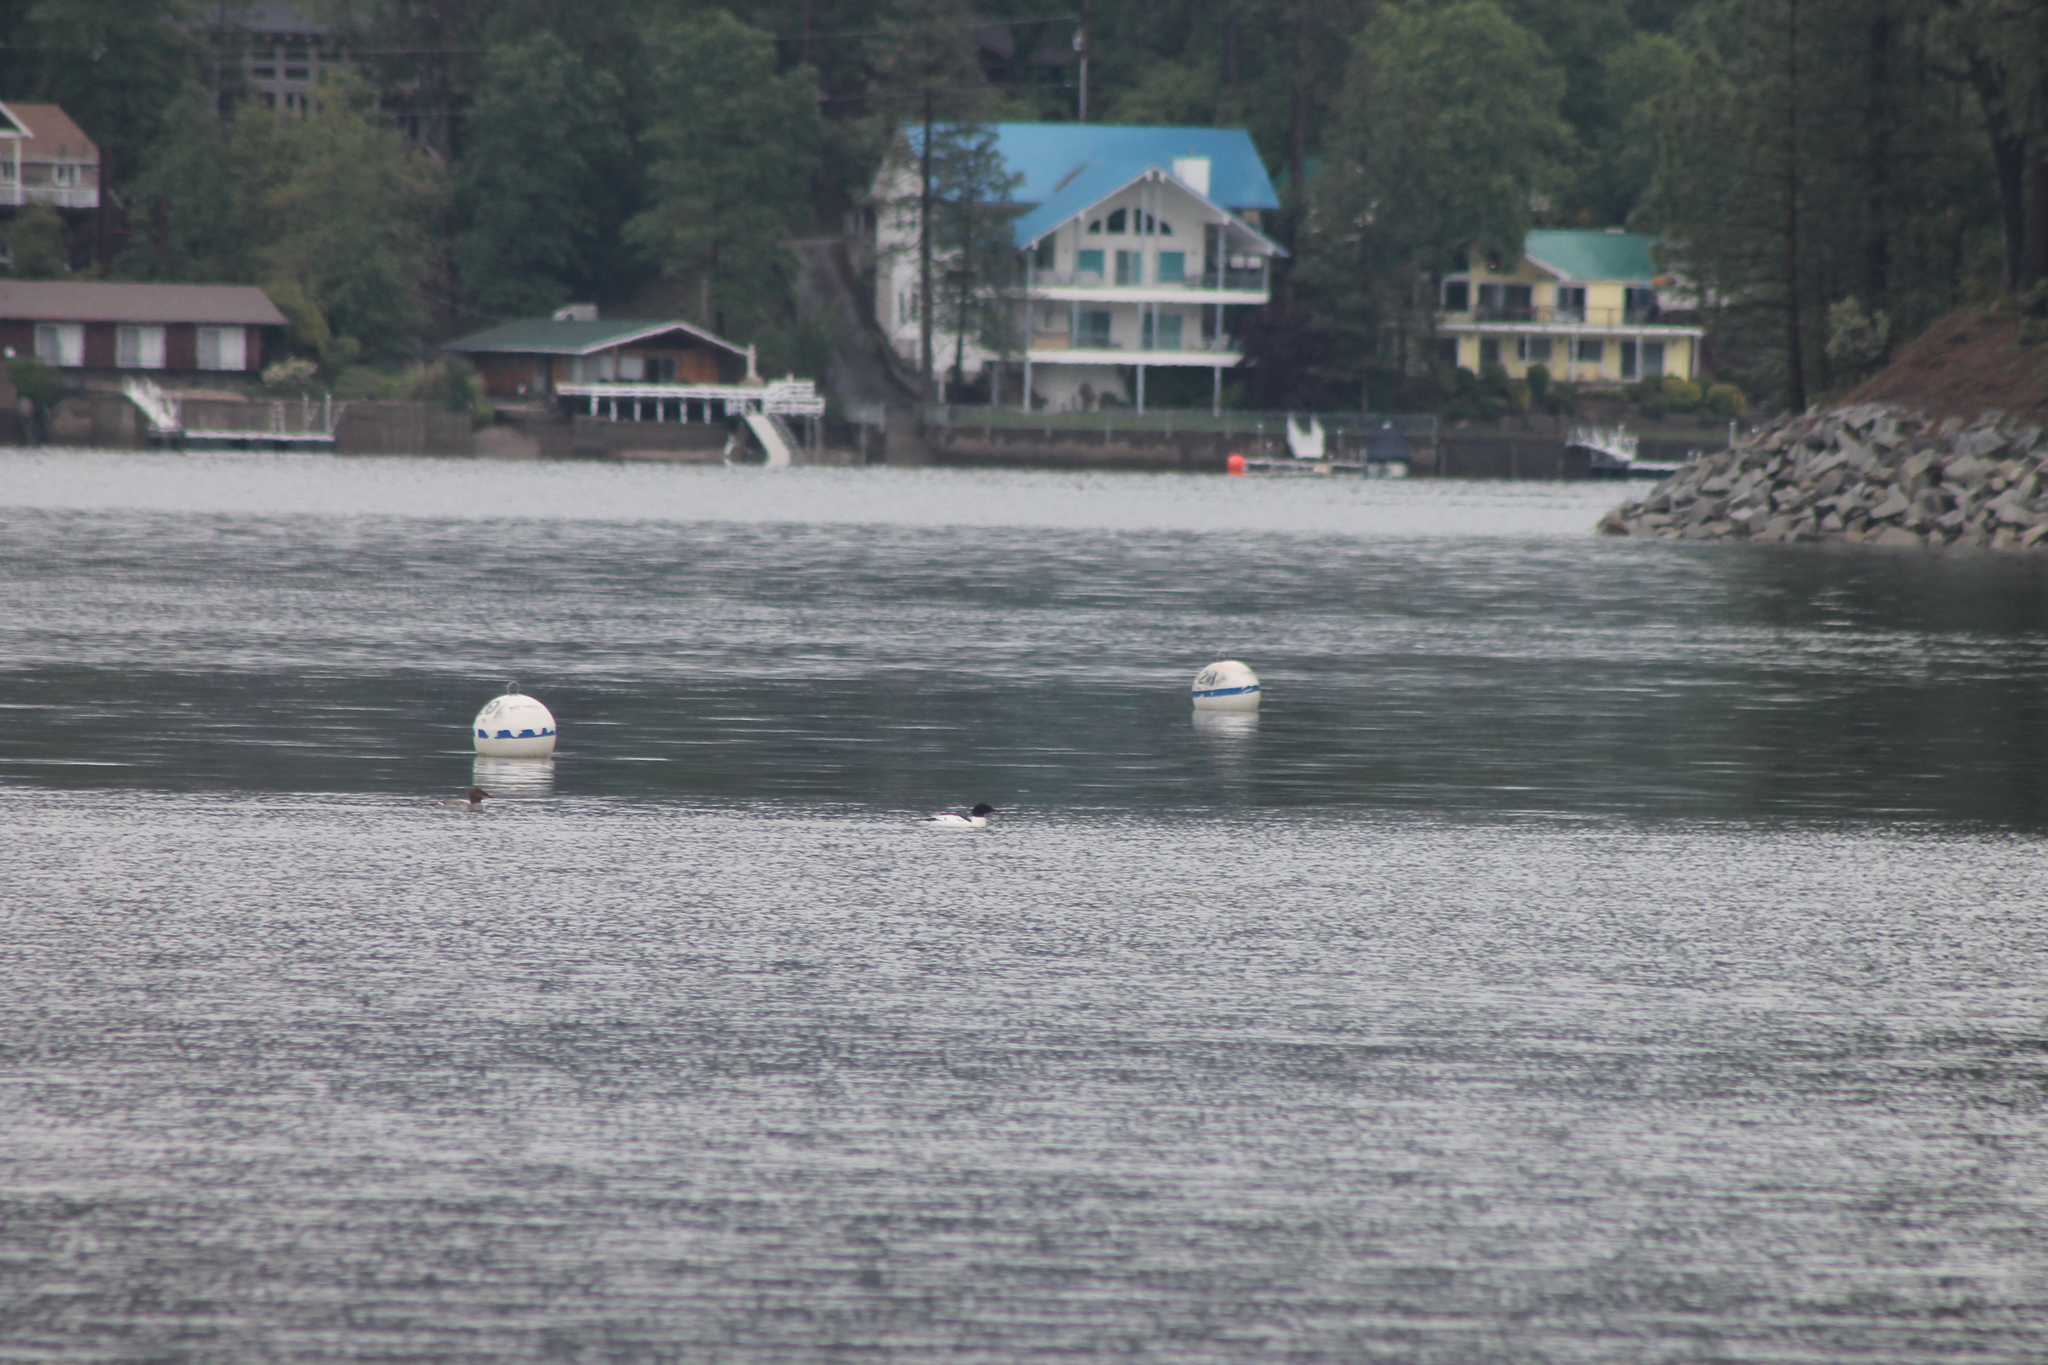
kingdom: Animalia
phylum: Chordata
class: Aves
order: Anseriformes
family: Anatidae
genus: Mergus
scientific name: Mergus merganser
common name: Common merganser
